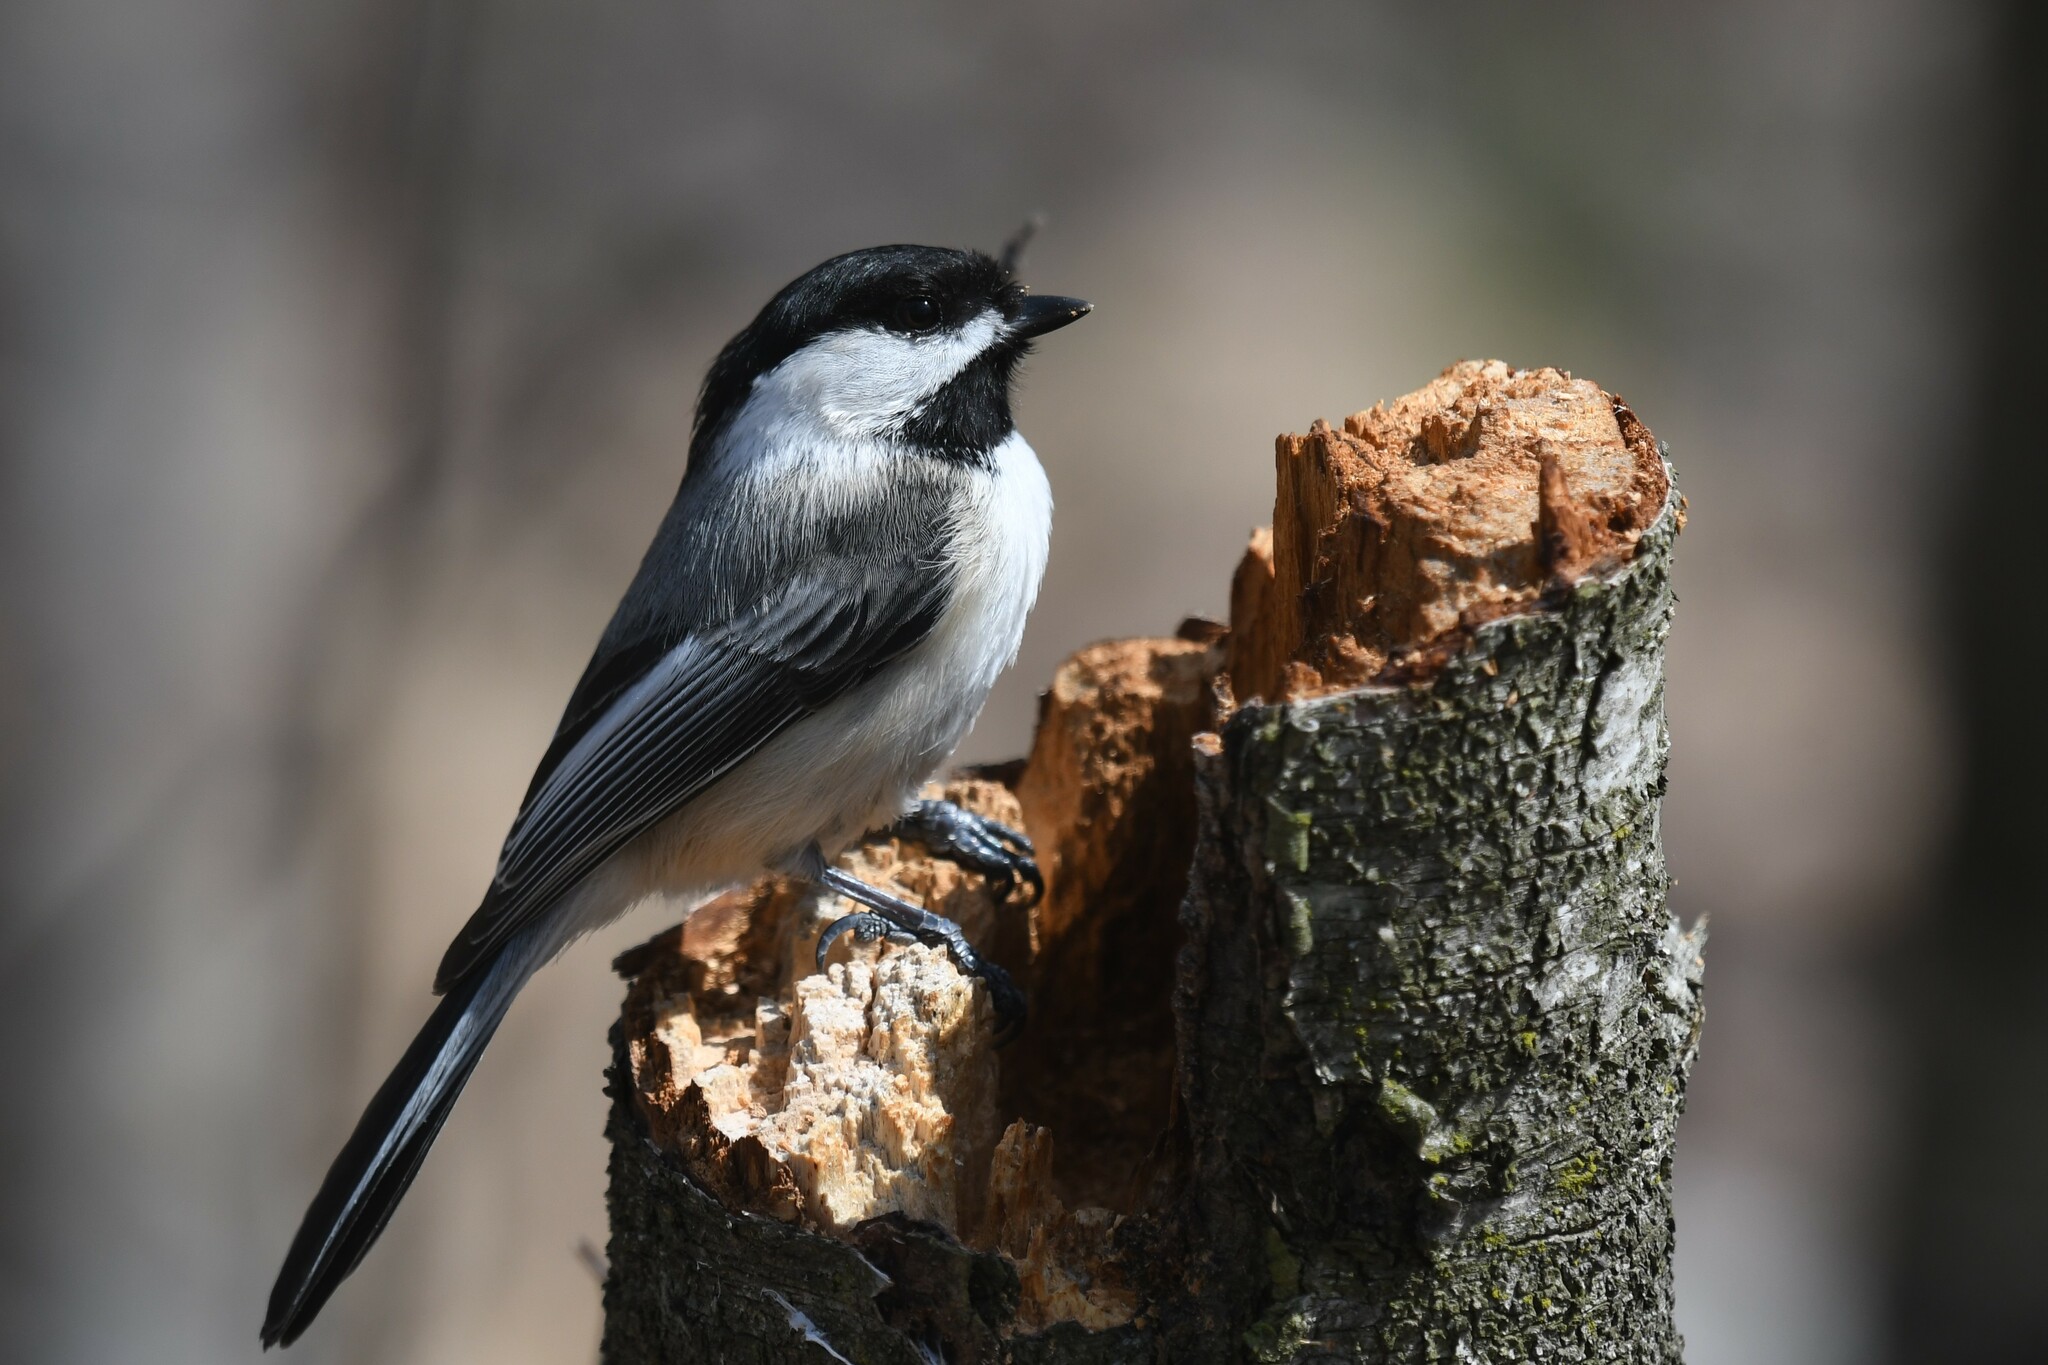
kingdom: Animalia
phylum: Chordata
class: Aves
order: Passeriformes
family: Paridae
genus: Poecile
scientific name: Poecile atricapillus
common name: Black-capped chickadee
